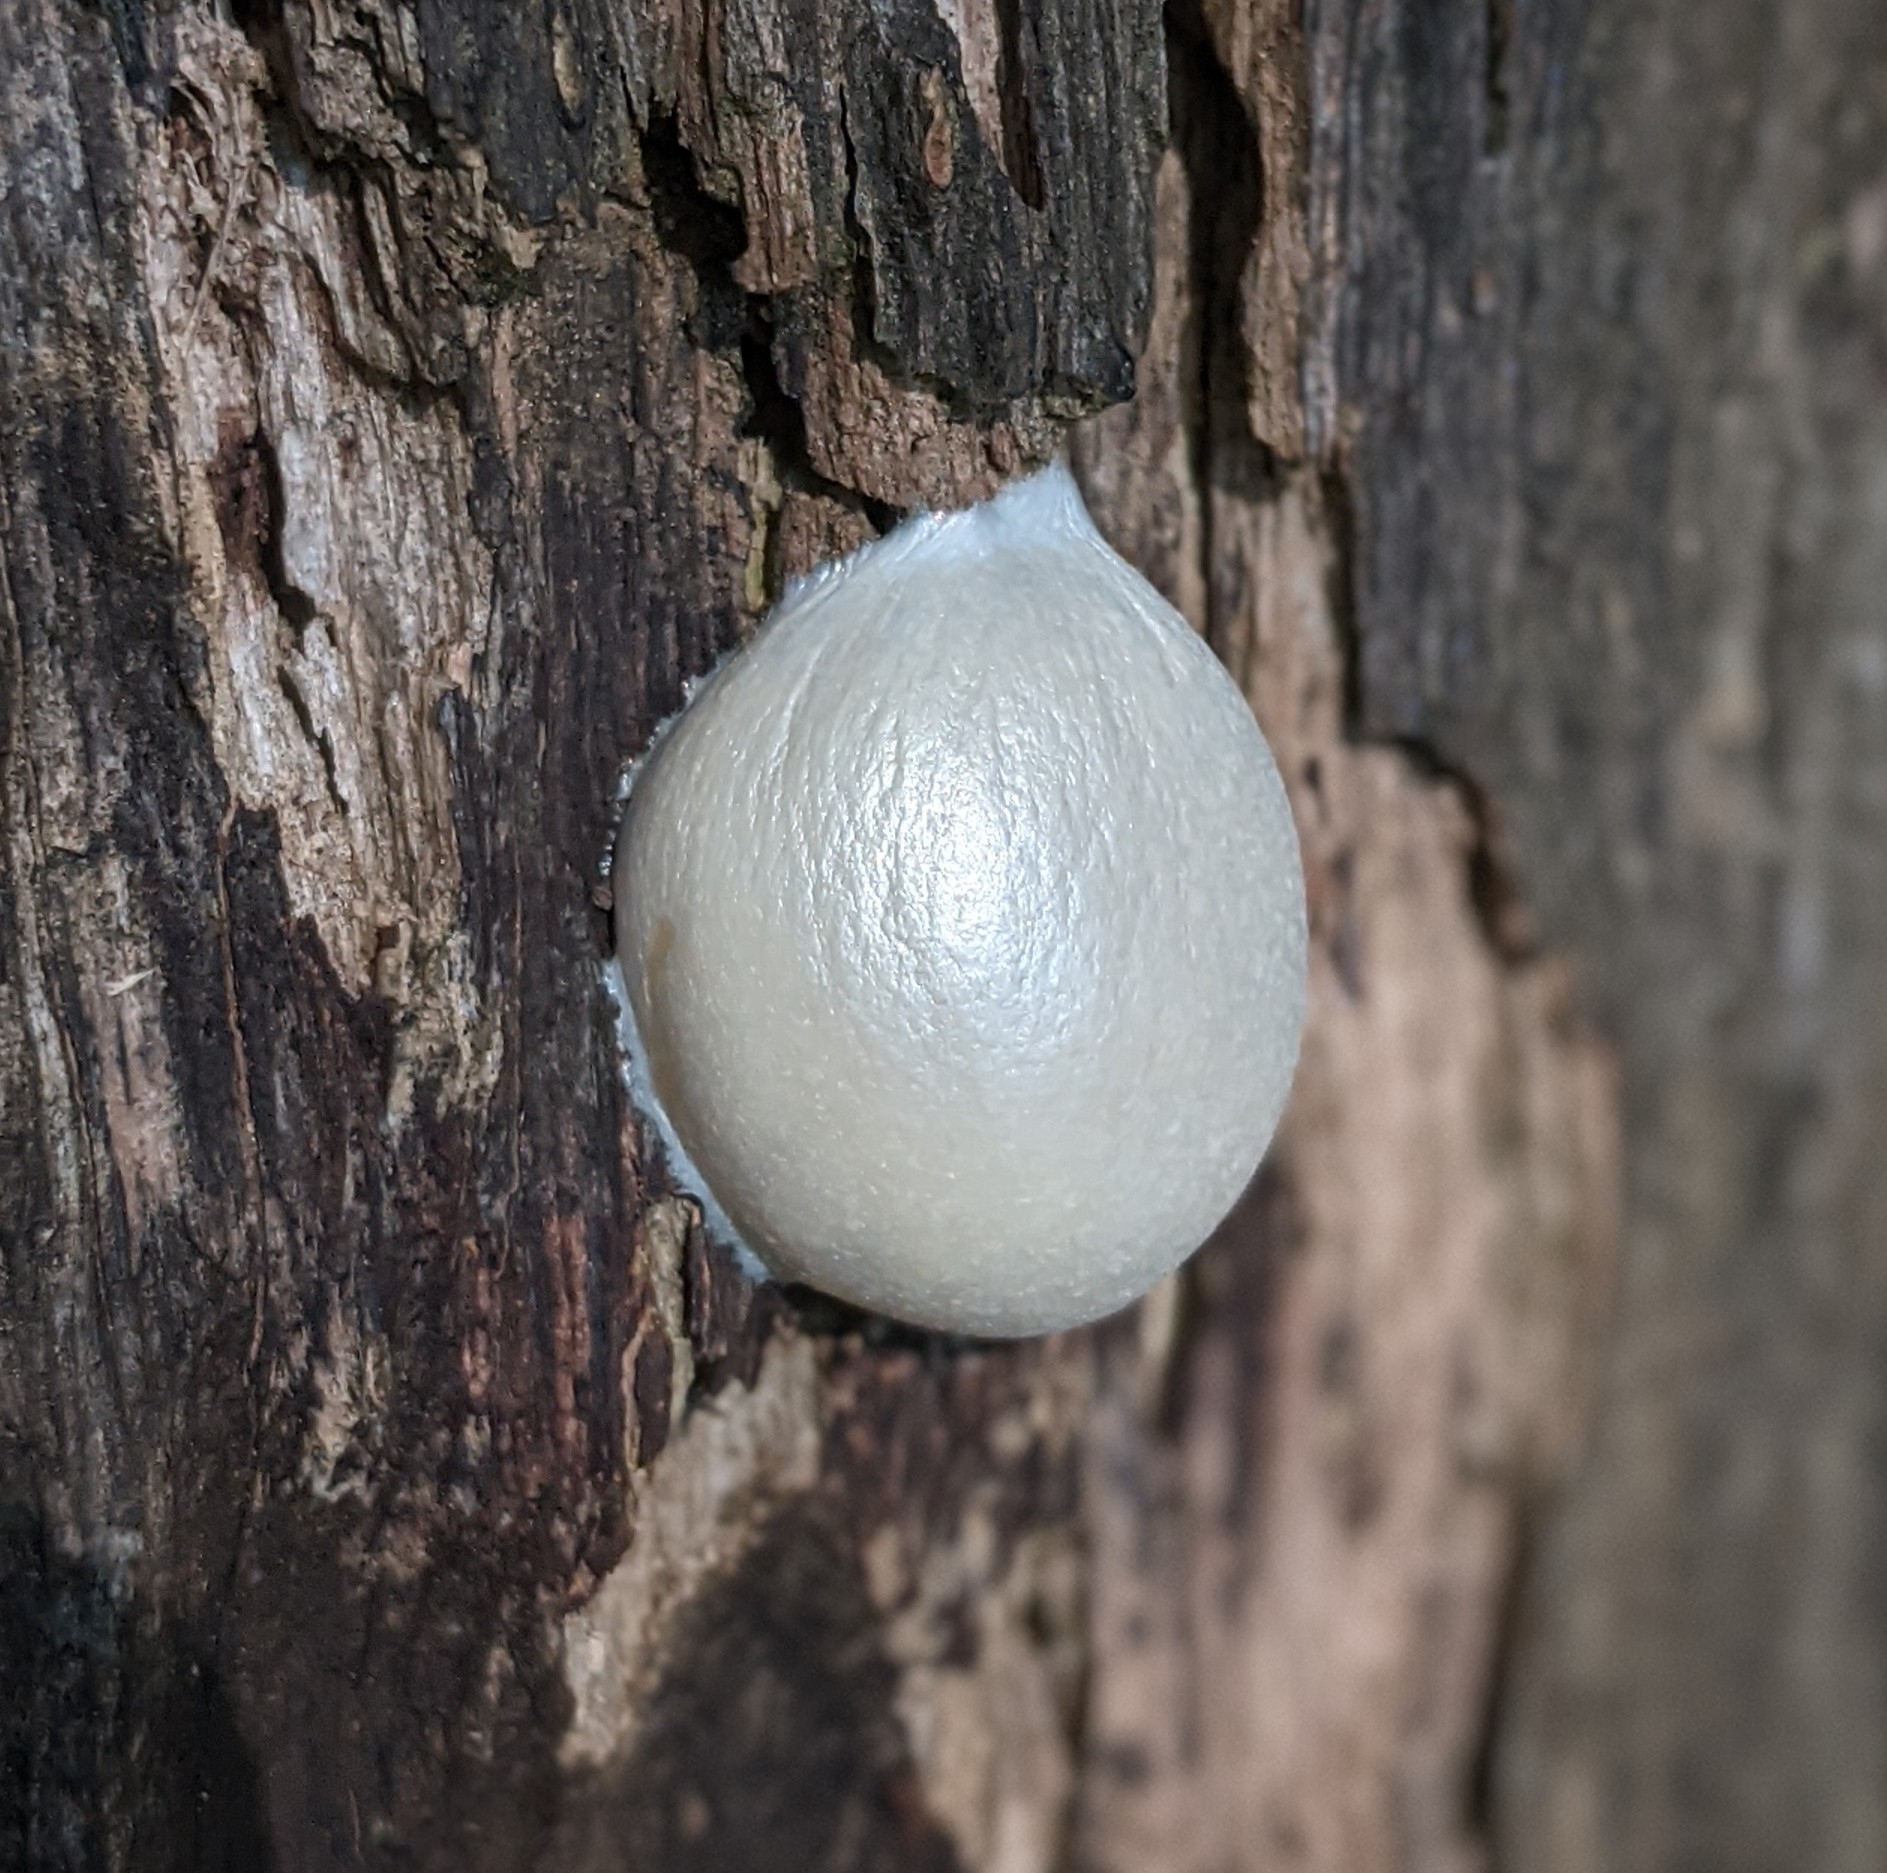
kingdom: Protozoa
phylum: Mycetozoa
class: Myxomycetes
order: Cribrariales
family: Tubiferaceae
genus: Reticularia
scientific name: Reticularia lycoperdon
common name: False puffball
